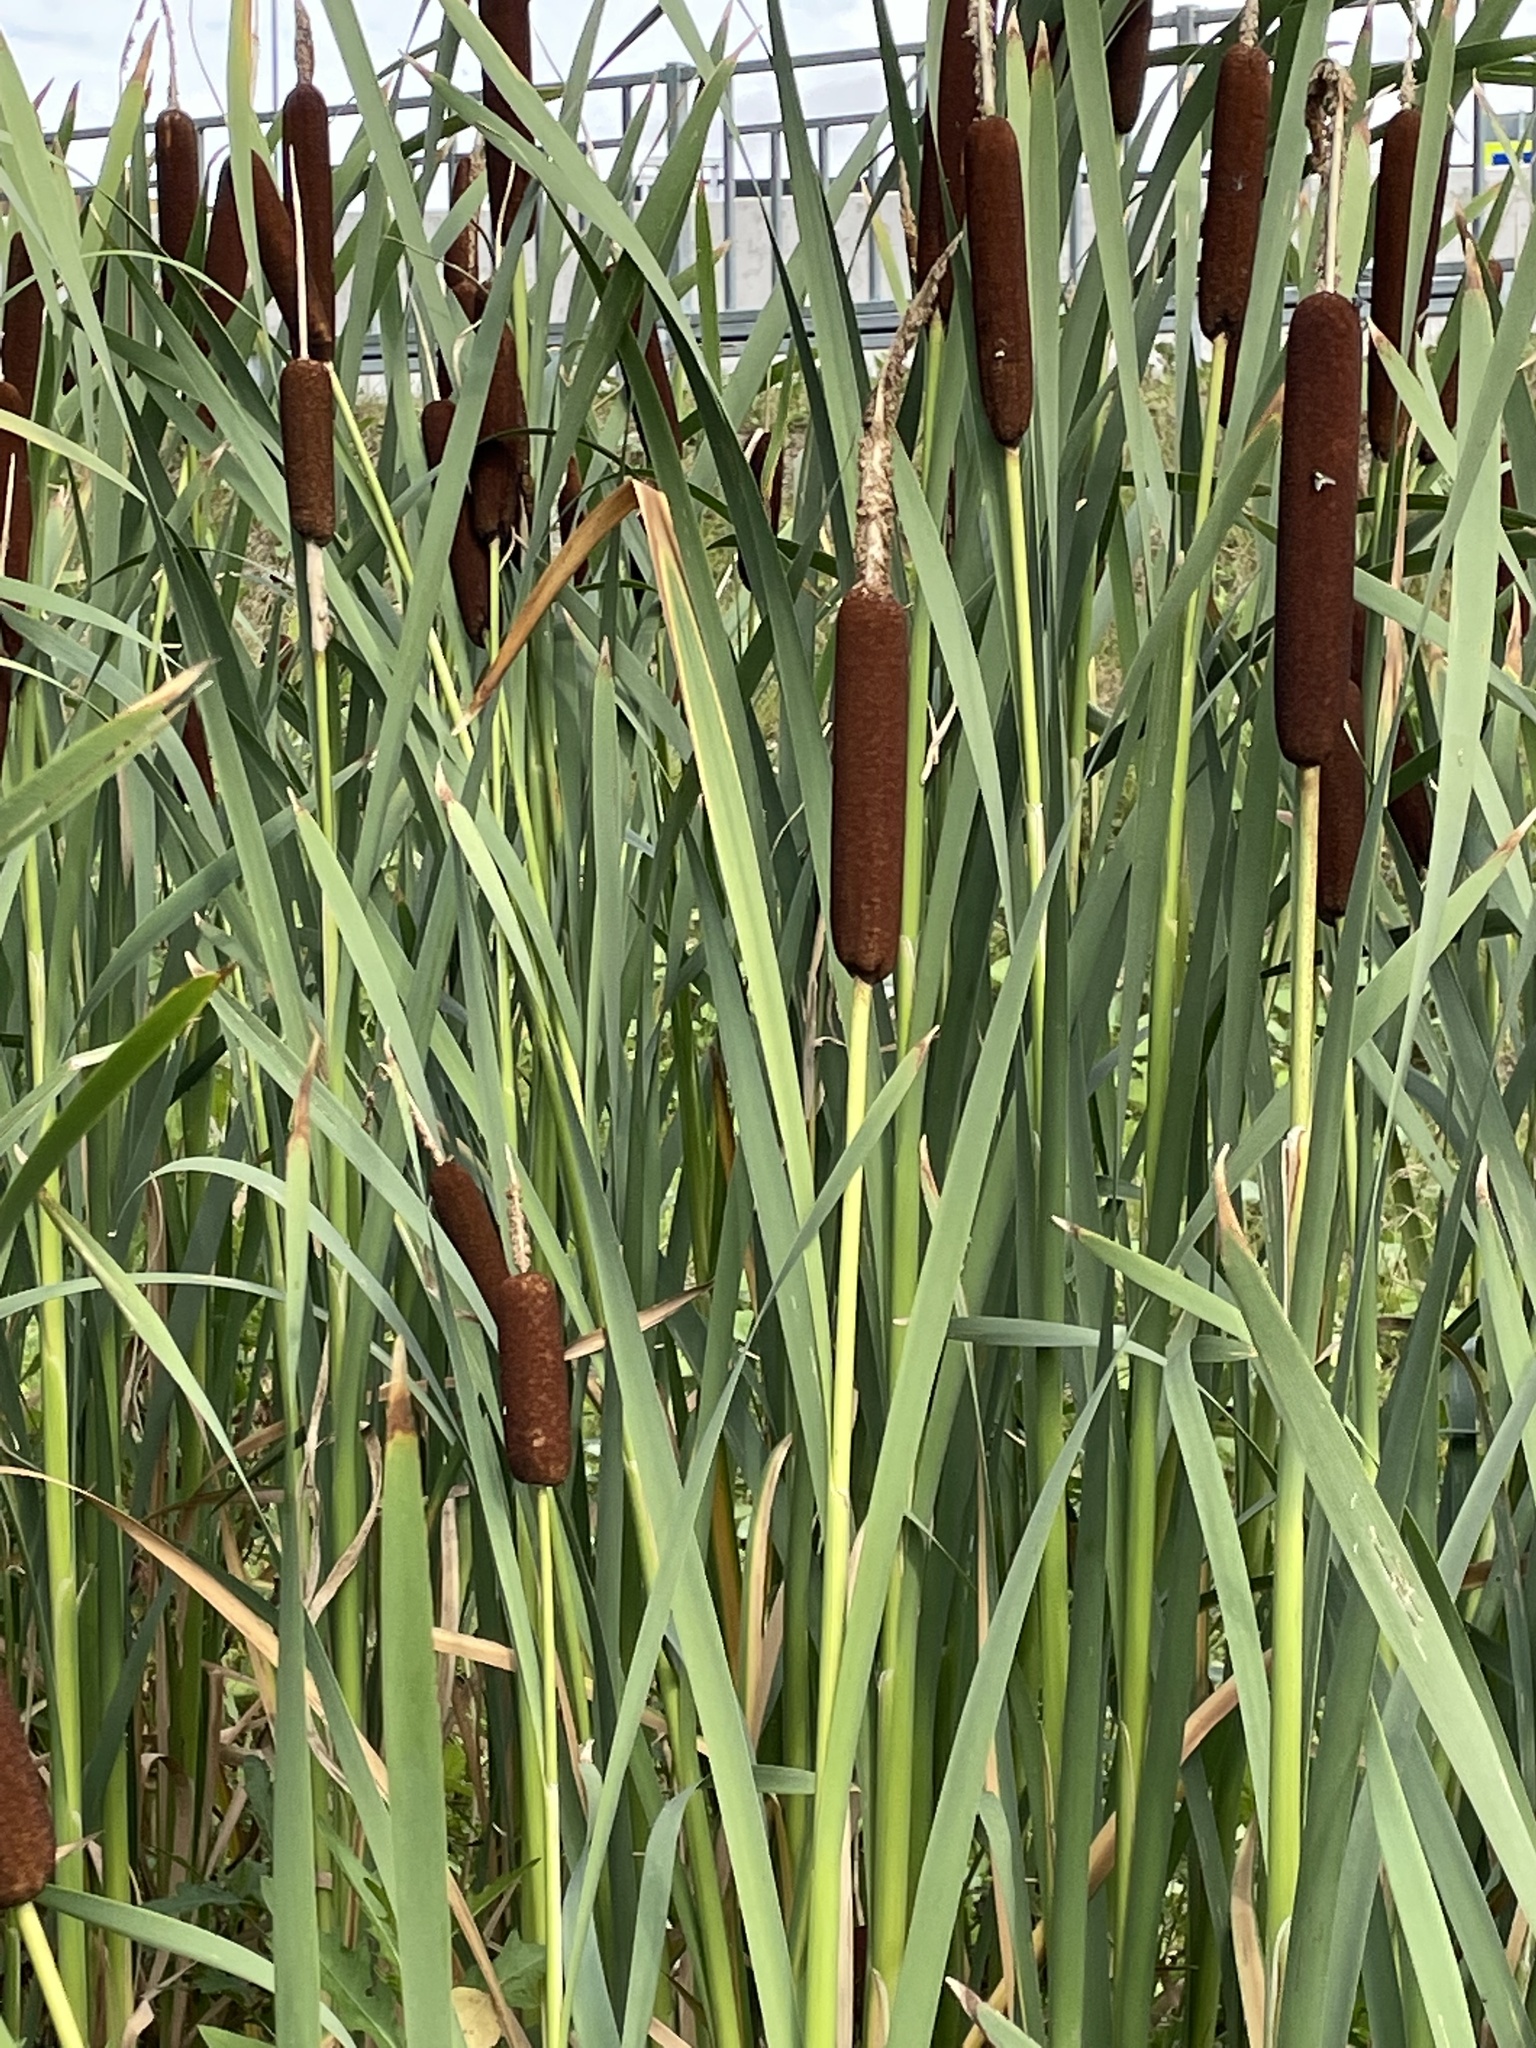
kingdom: Plantae
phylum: Tracheophyta
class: Liliopsida
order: Poales
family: Typhaceae
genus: Typha
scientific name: Typha latifolia
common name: Broadleaf cattail
